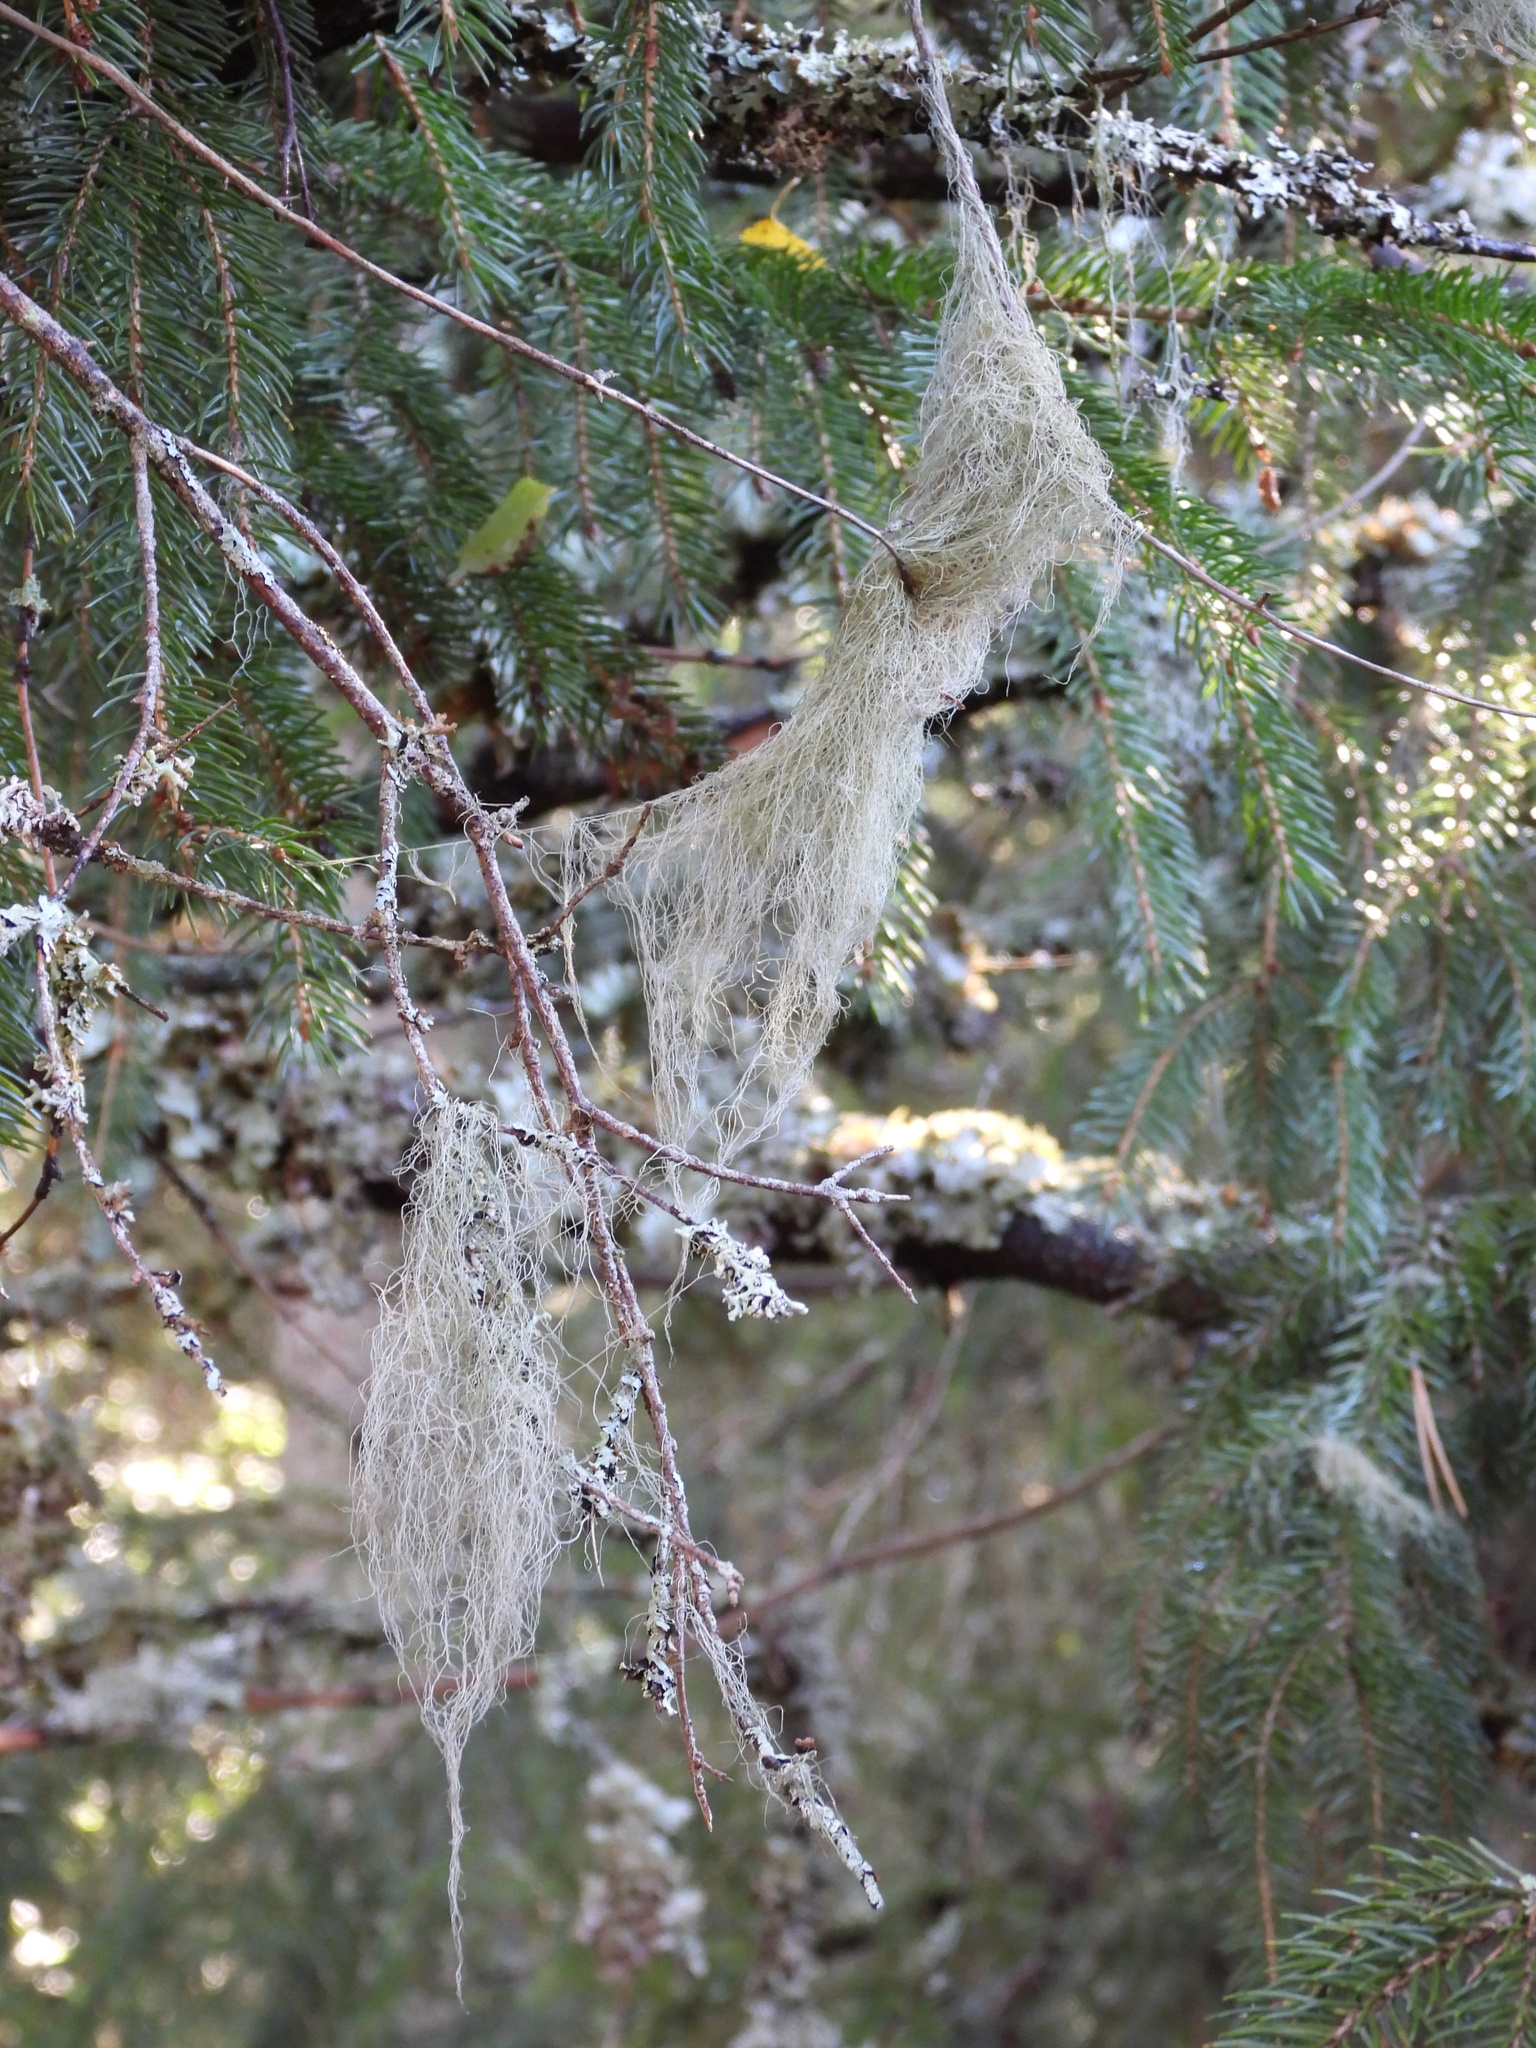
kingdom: Fungi
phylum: Ascomycota
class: Lecanoromycetes
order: Lecanorales
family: Parmeliaceae
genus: Bryoria
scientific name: Bryoria fuscescens
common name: Pale-footed horsehair lichen
